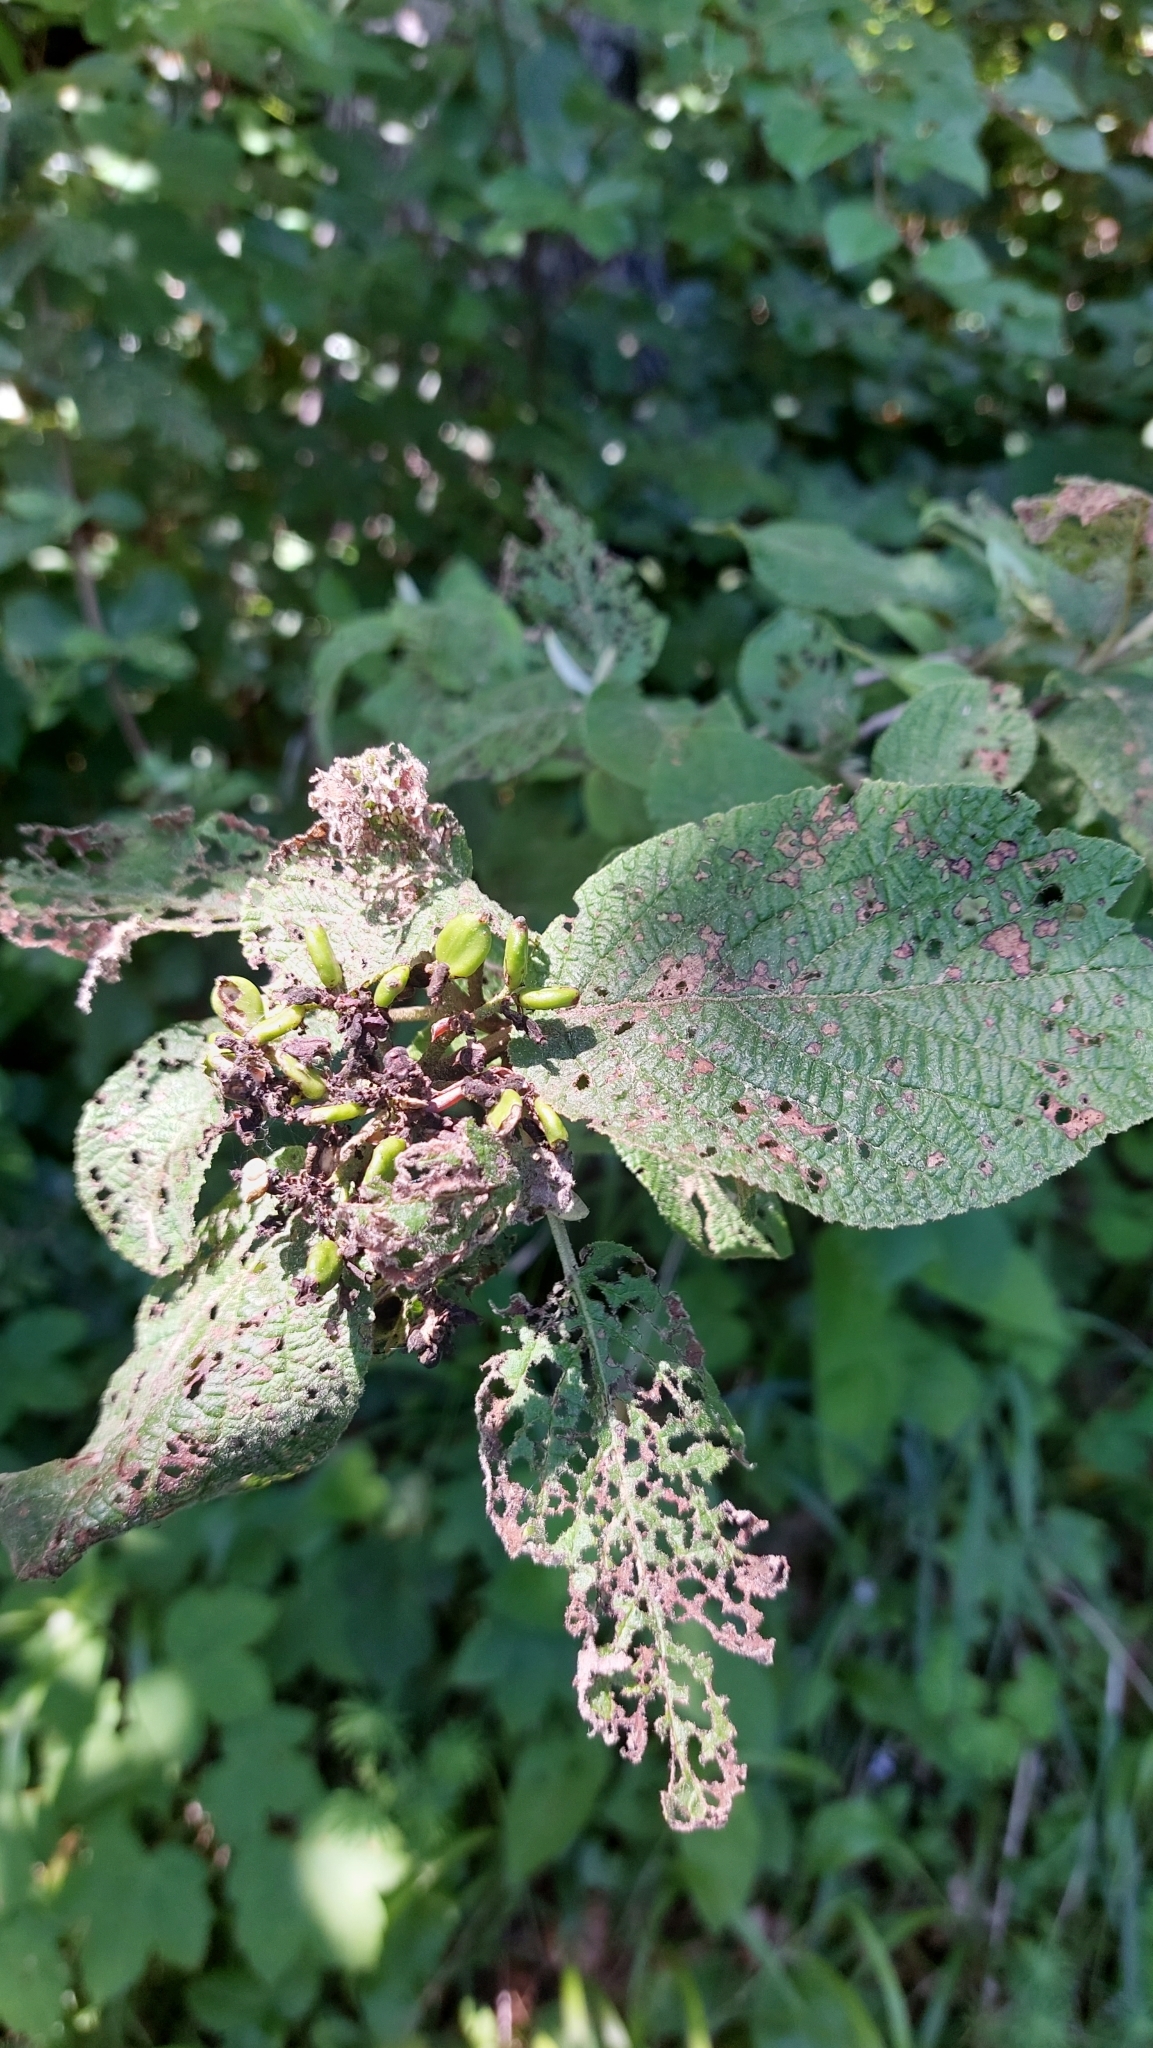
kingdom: Plantae
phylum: Tracheophyta
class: Magnoliopsida
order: Dipsacales
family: Viburnaceae
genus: Viburnum
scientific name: Viburnum lantana
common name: Wayfaring tree
